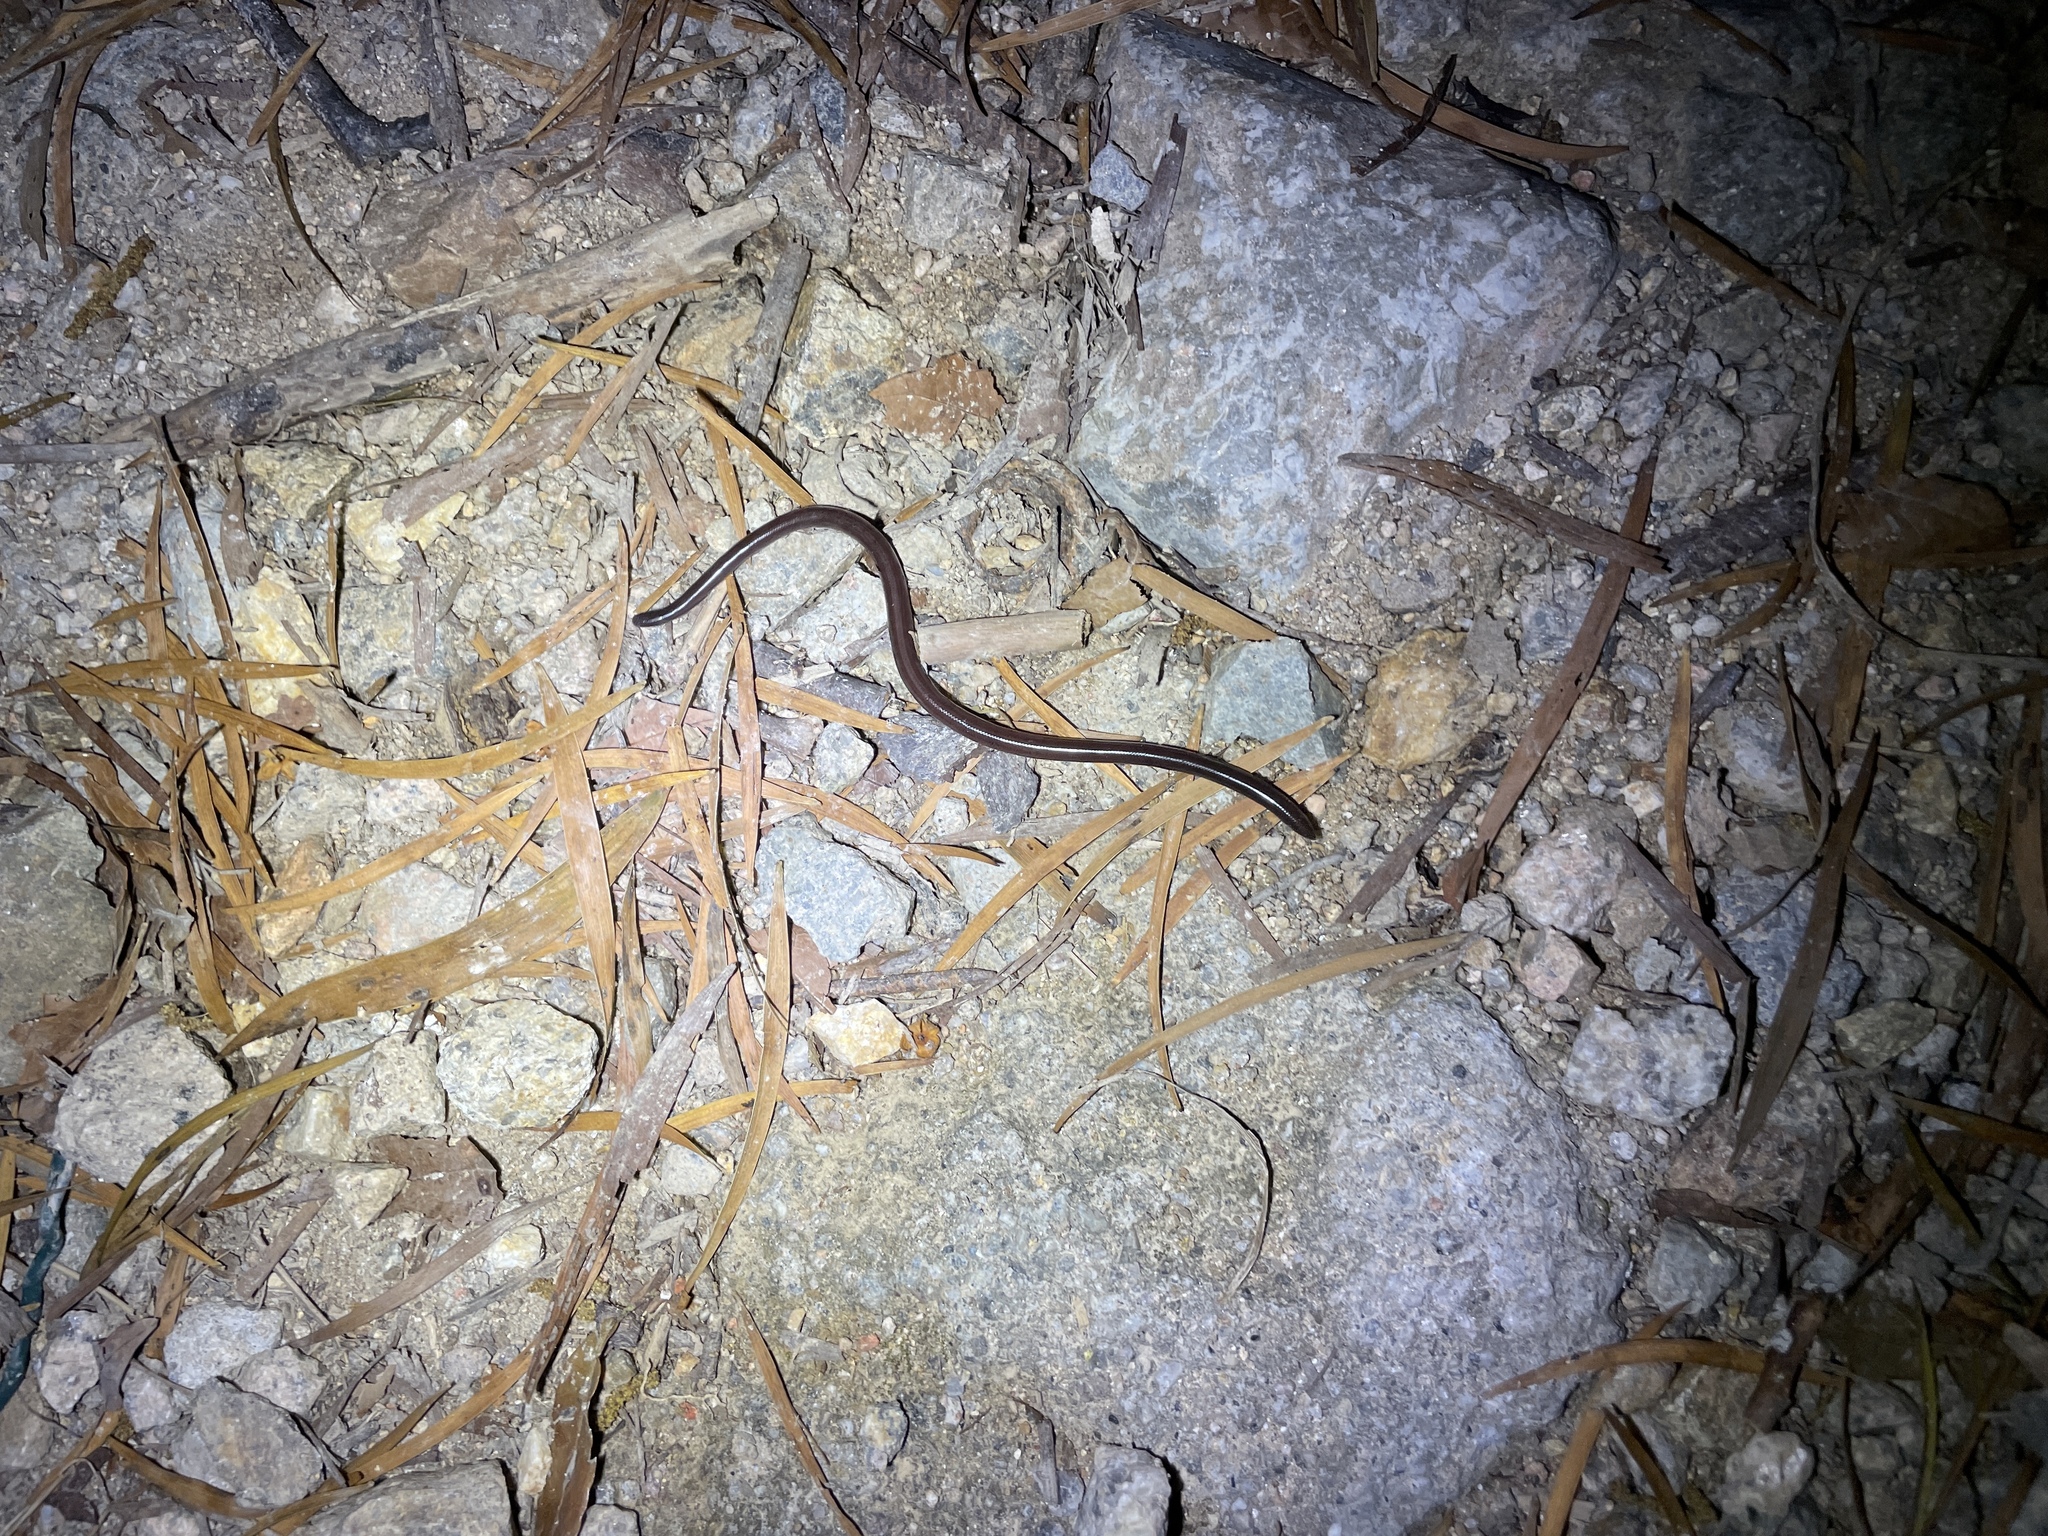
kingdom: Animalia
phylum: Chordata
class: Squamata
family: Typhlopidae
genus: Indotyphlops
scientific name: Indotyphlops braminus
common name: Brahminy blindsnake
